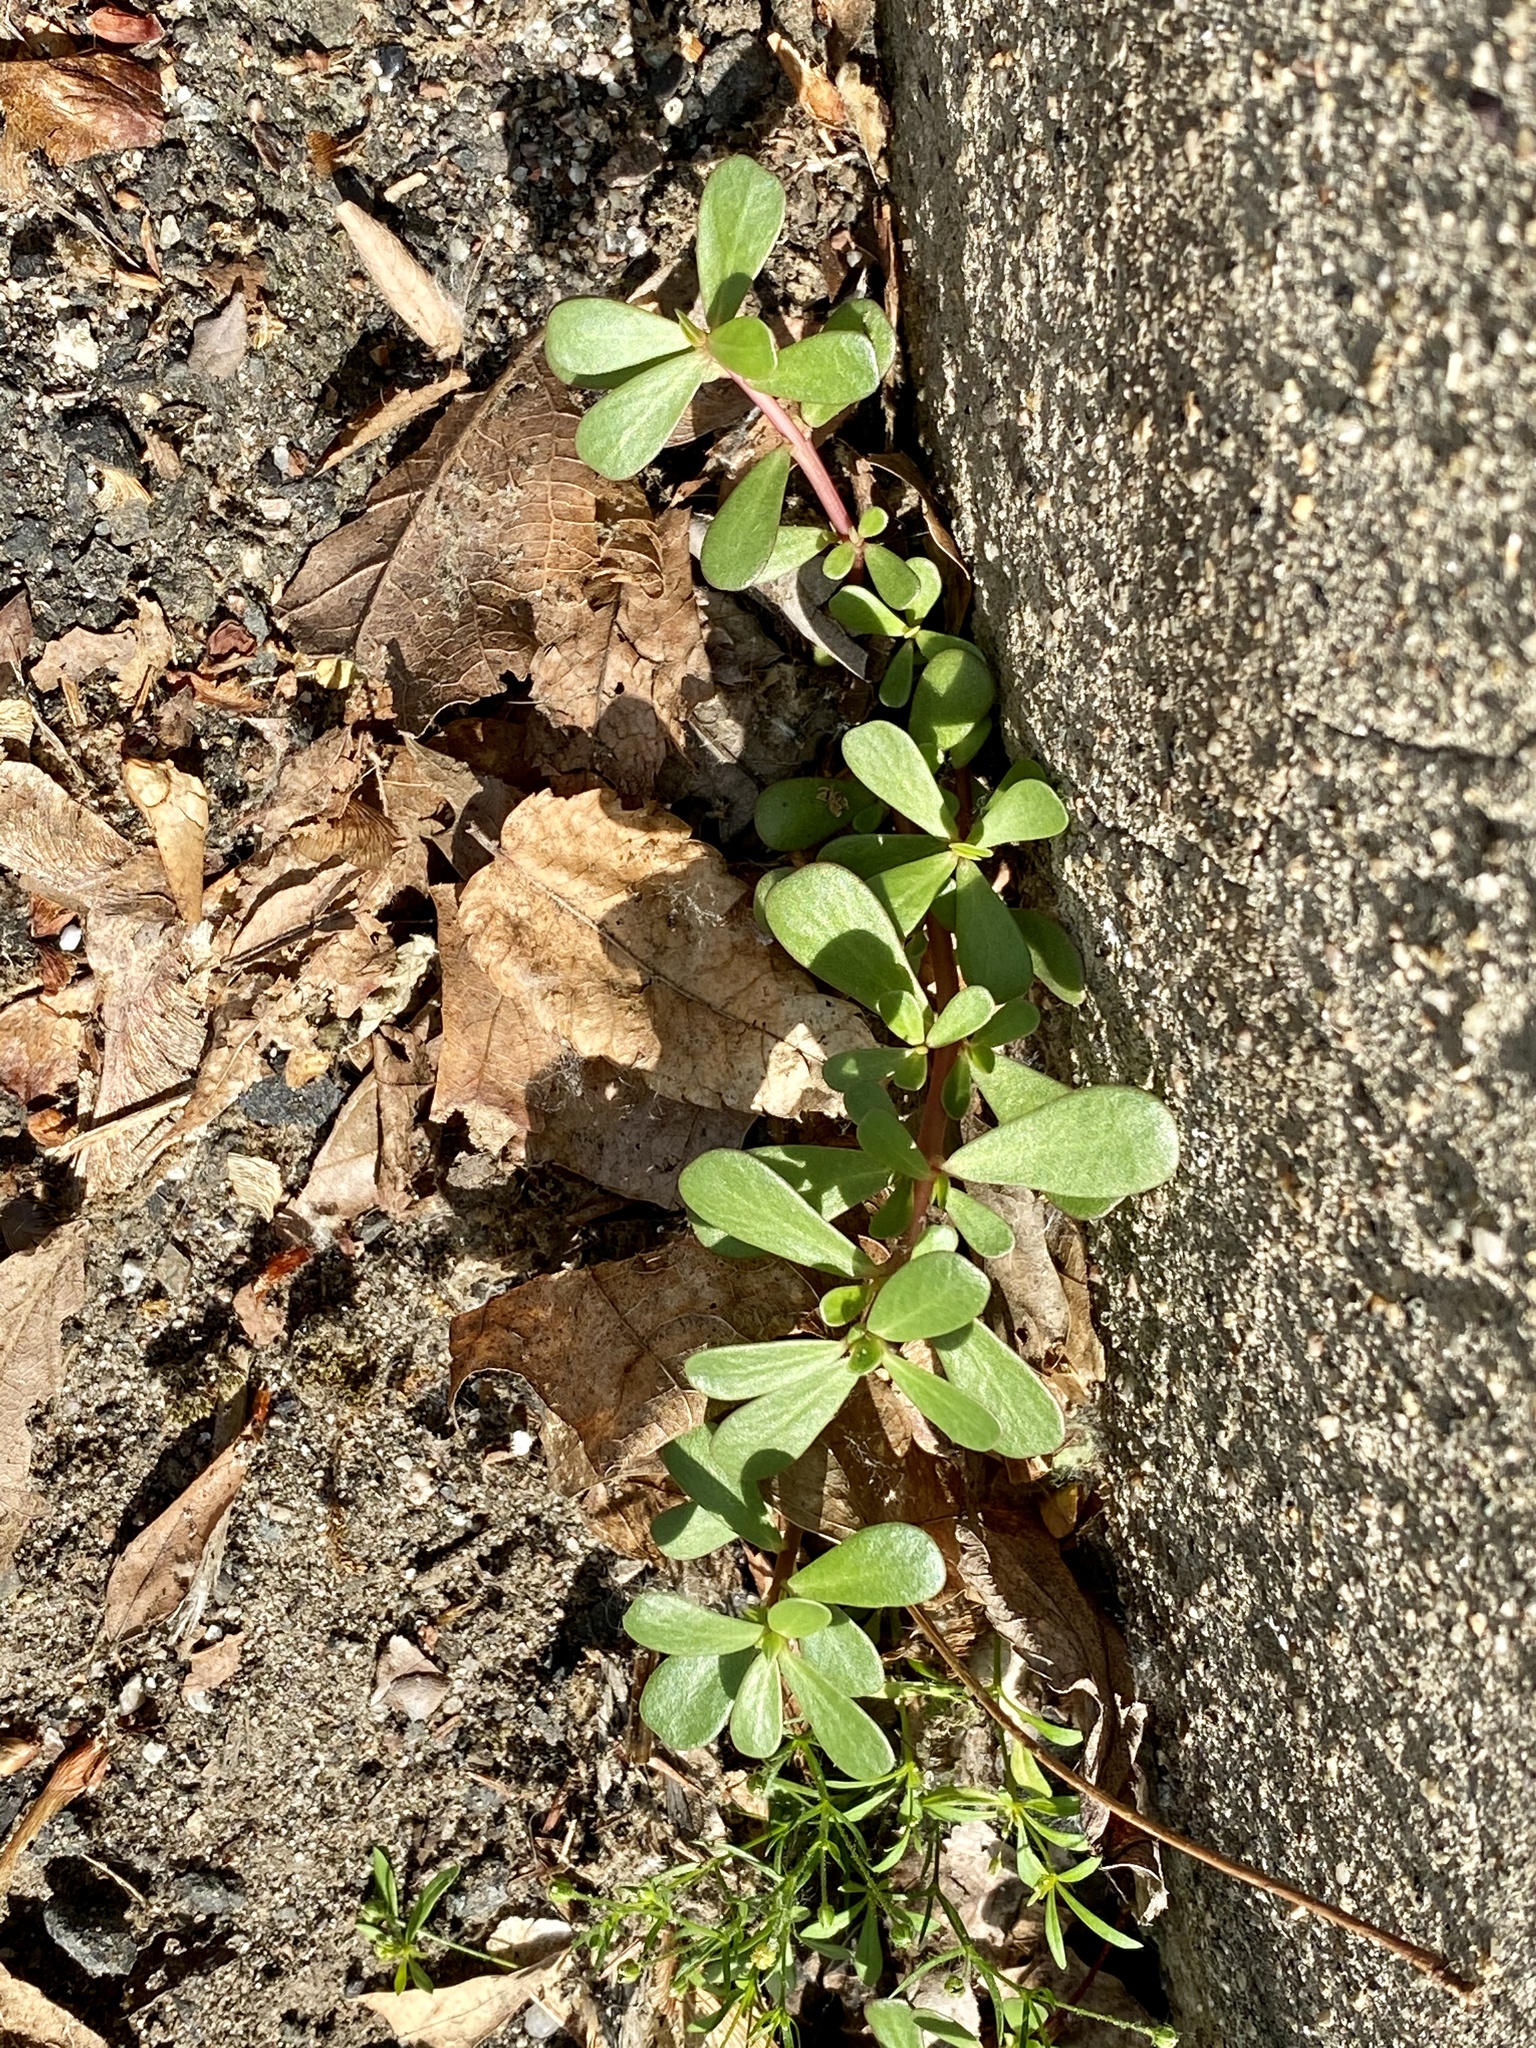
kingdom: Plantae
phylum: Tracheophyta
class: Magnoliopsida
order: Caryophyllales
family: Portulacaceae
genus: Portulaca
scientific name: Portulaca oleracea
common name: Common purslane
